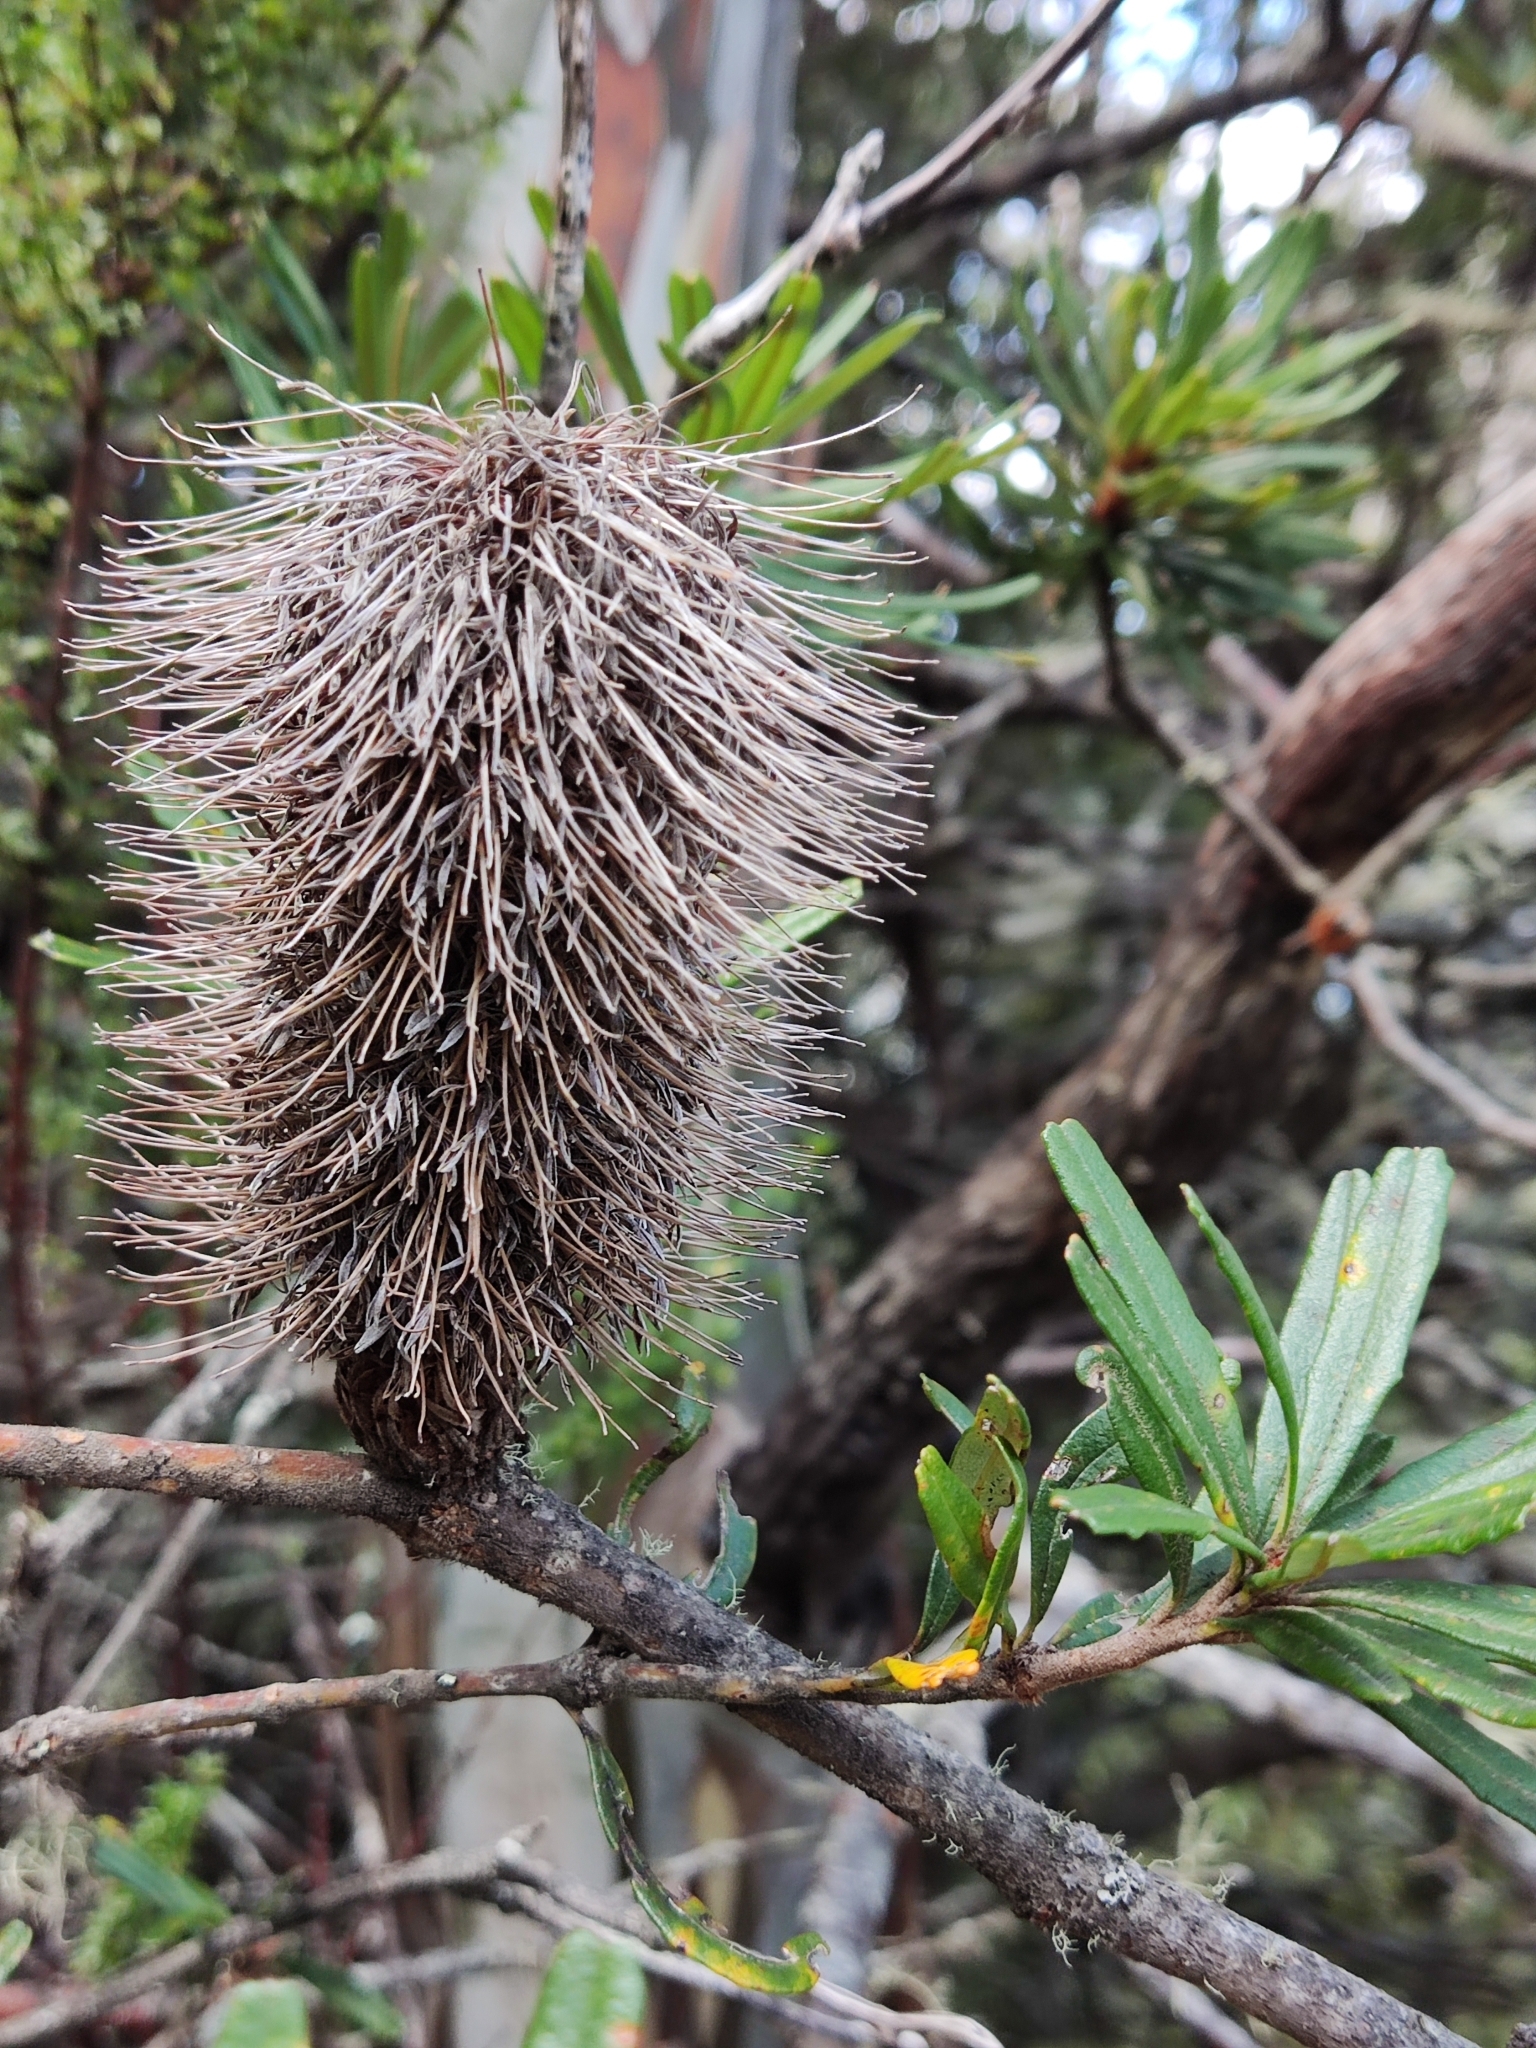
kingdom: Plantae
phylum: Tracheophyta
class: Magnoliopsida
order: Proteales
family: Proteaceae
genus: Banksia
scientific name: Banksia marginata
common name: Silver banksia
